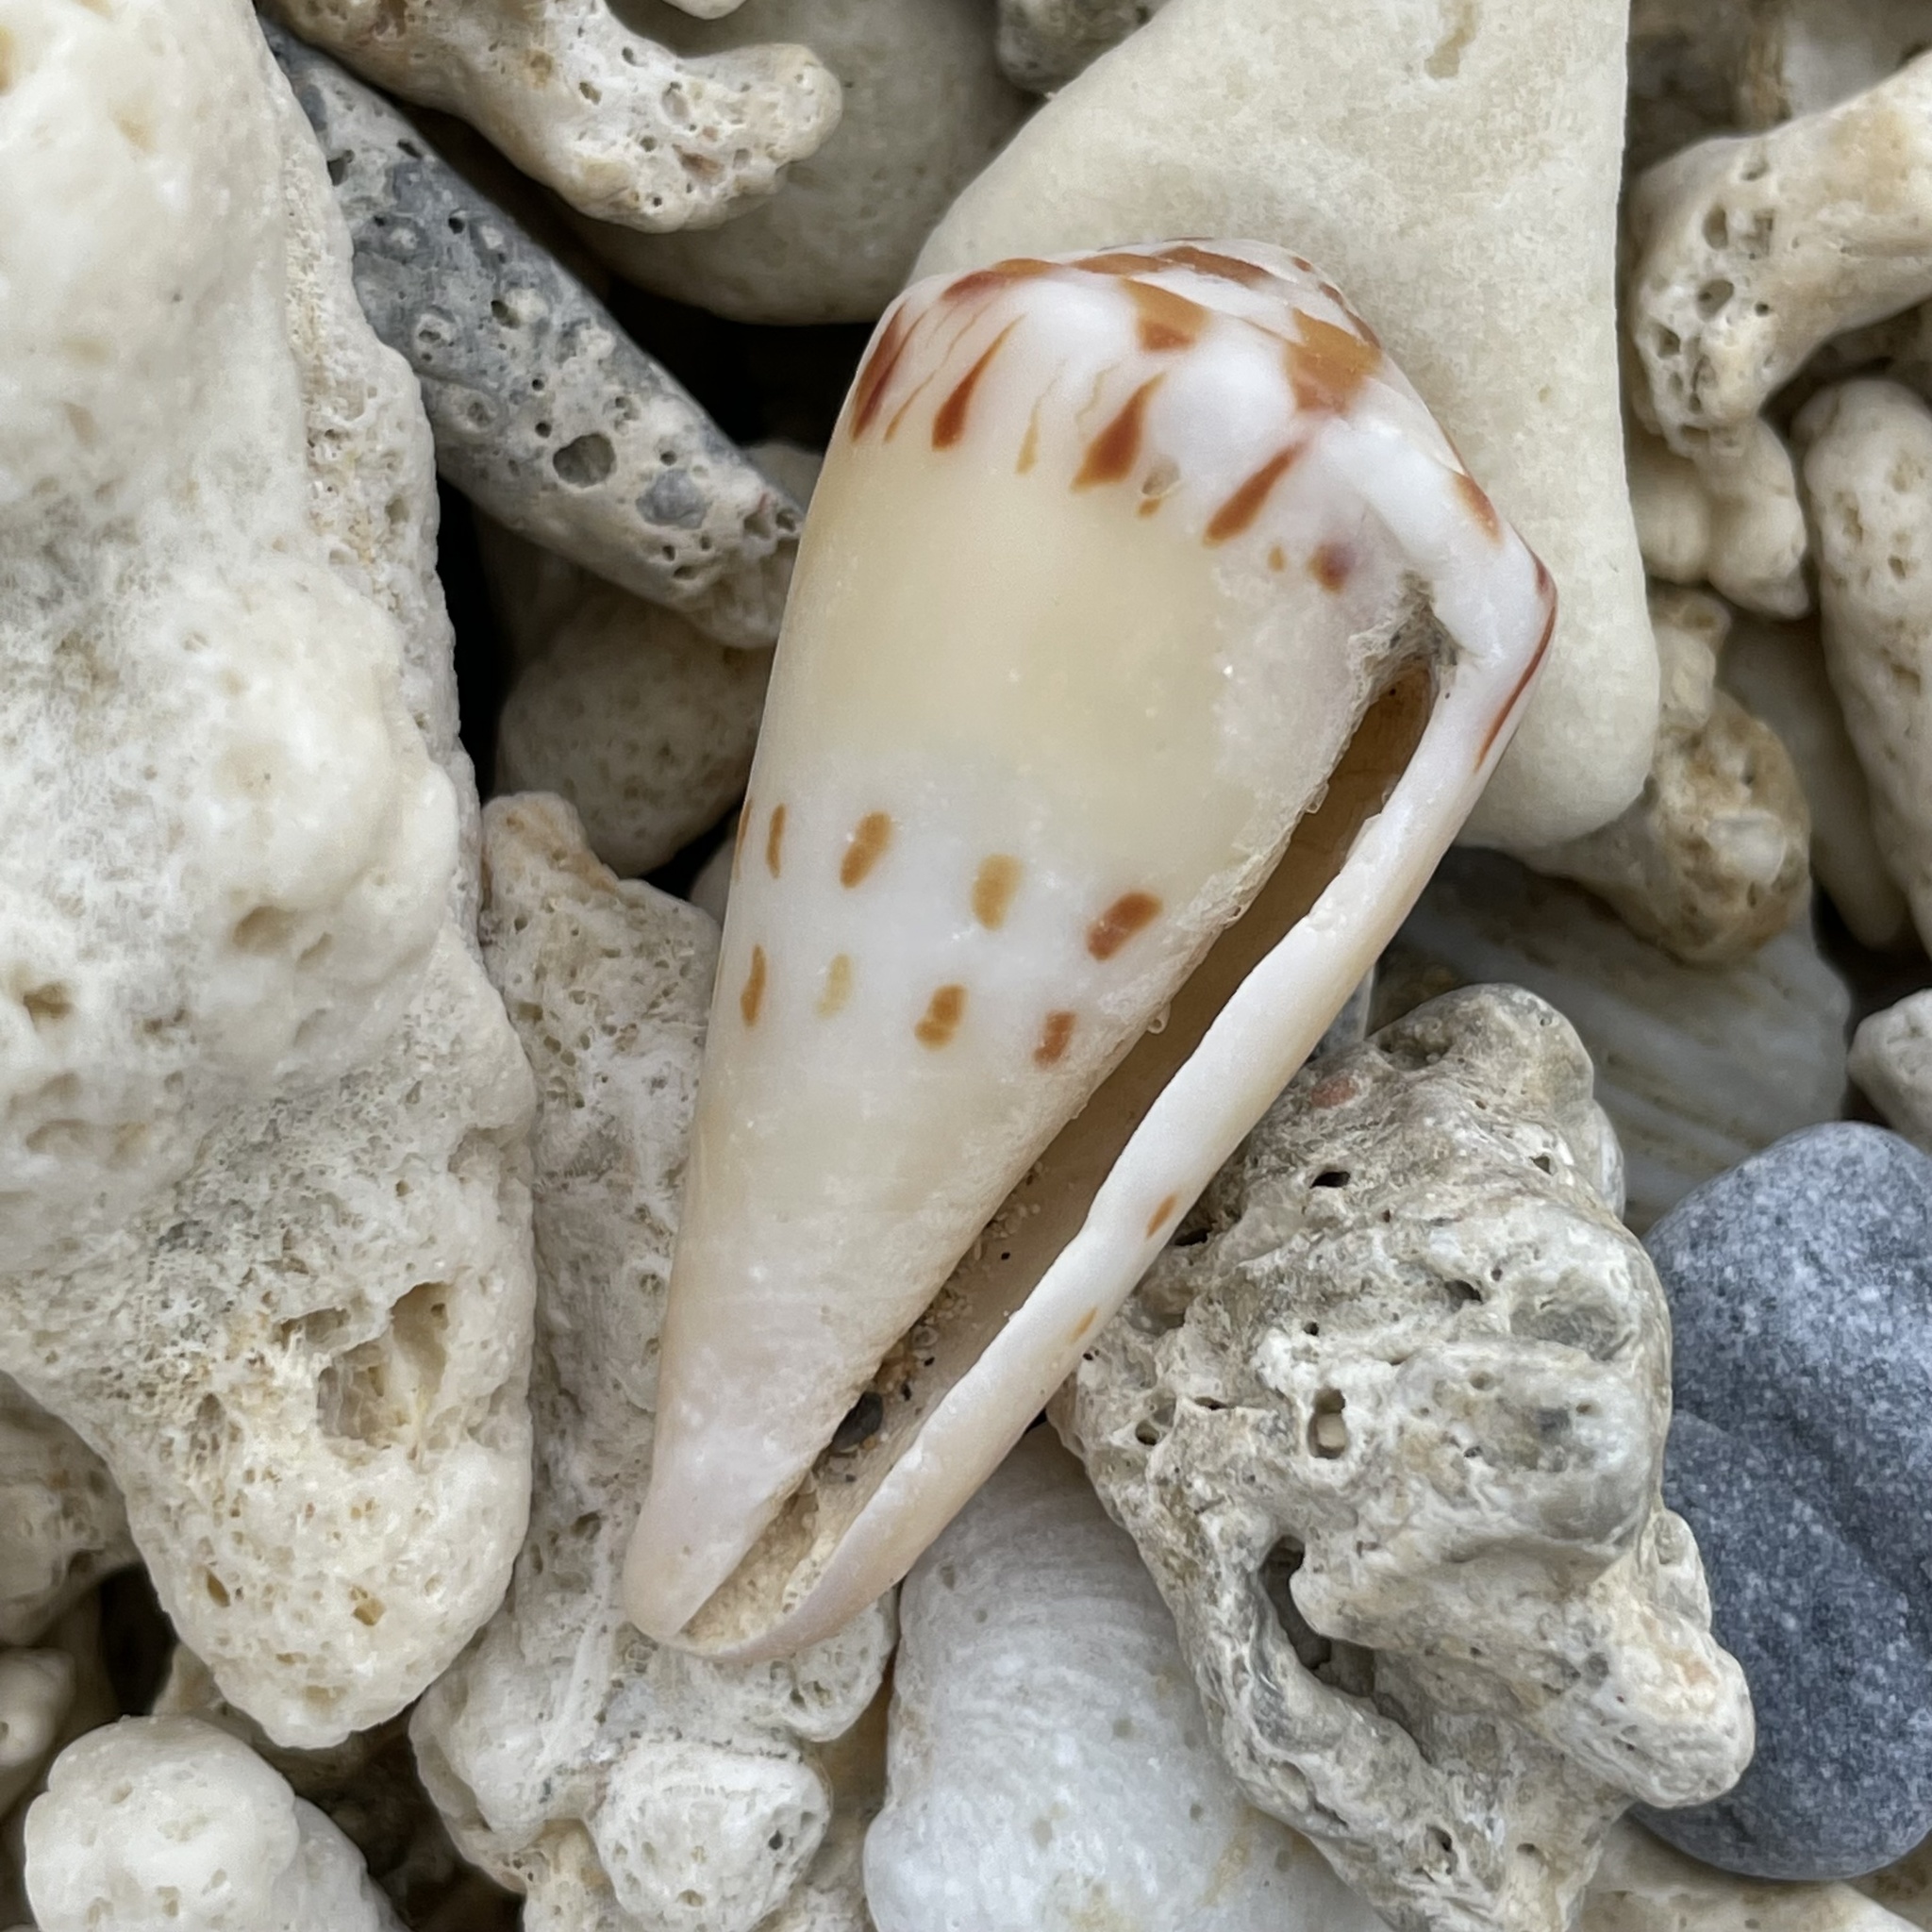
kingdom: Animalia
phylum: Mollusca
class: Gastropoda
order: Neogastropoda
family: Conidae
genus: Conus
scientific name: Conus mustelinus
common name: Weasel cone
